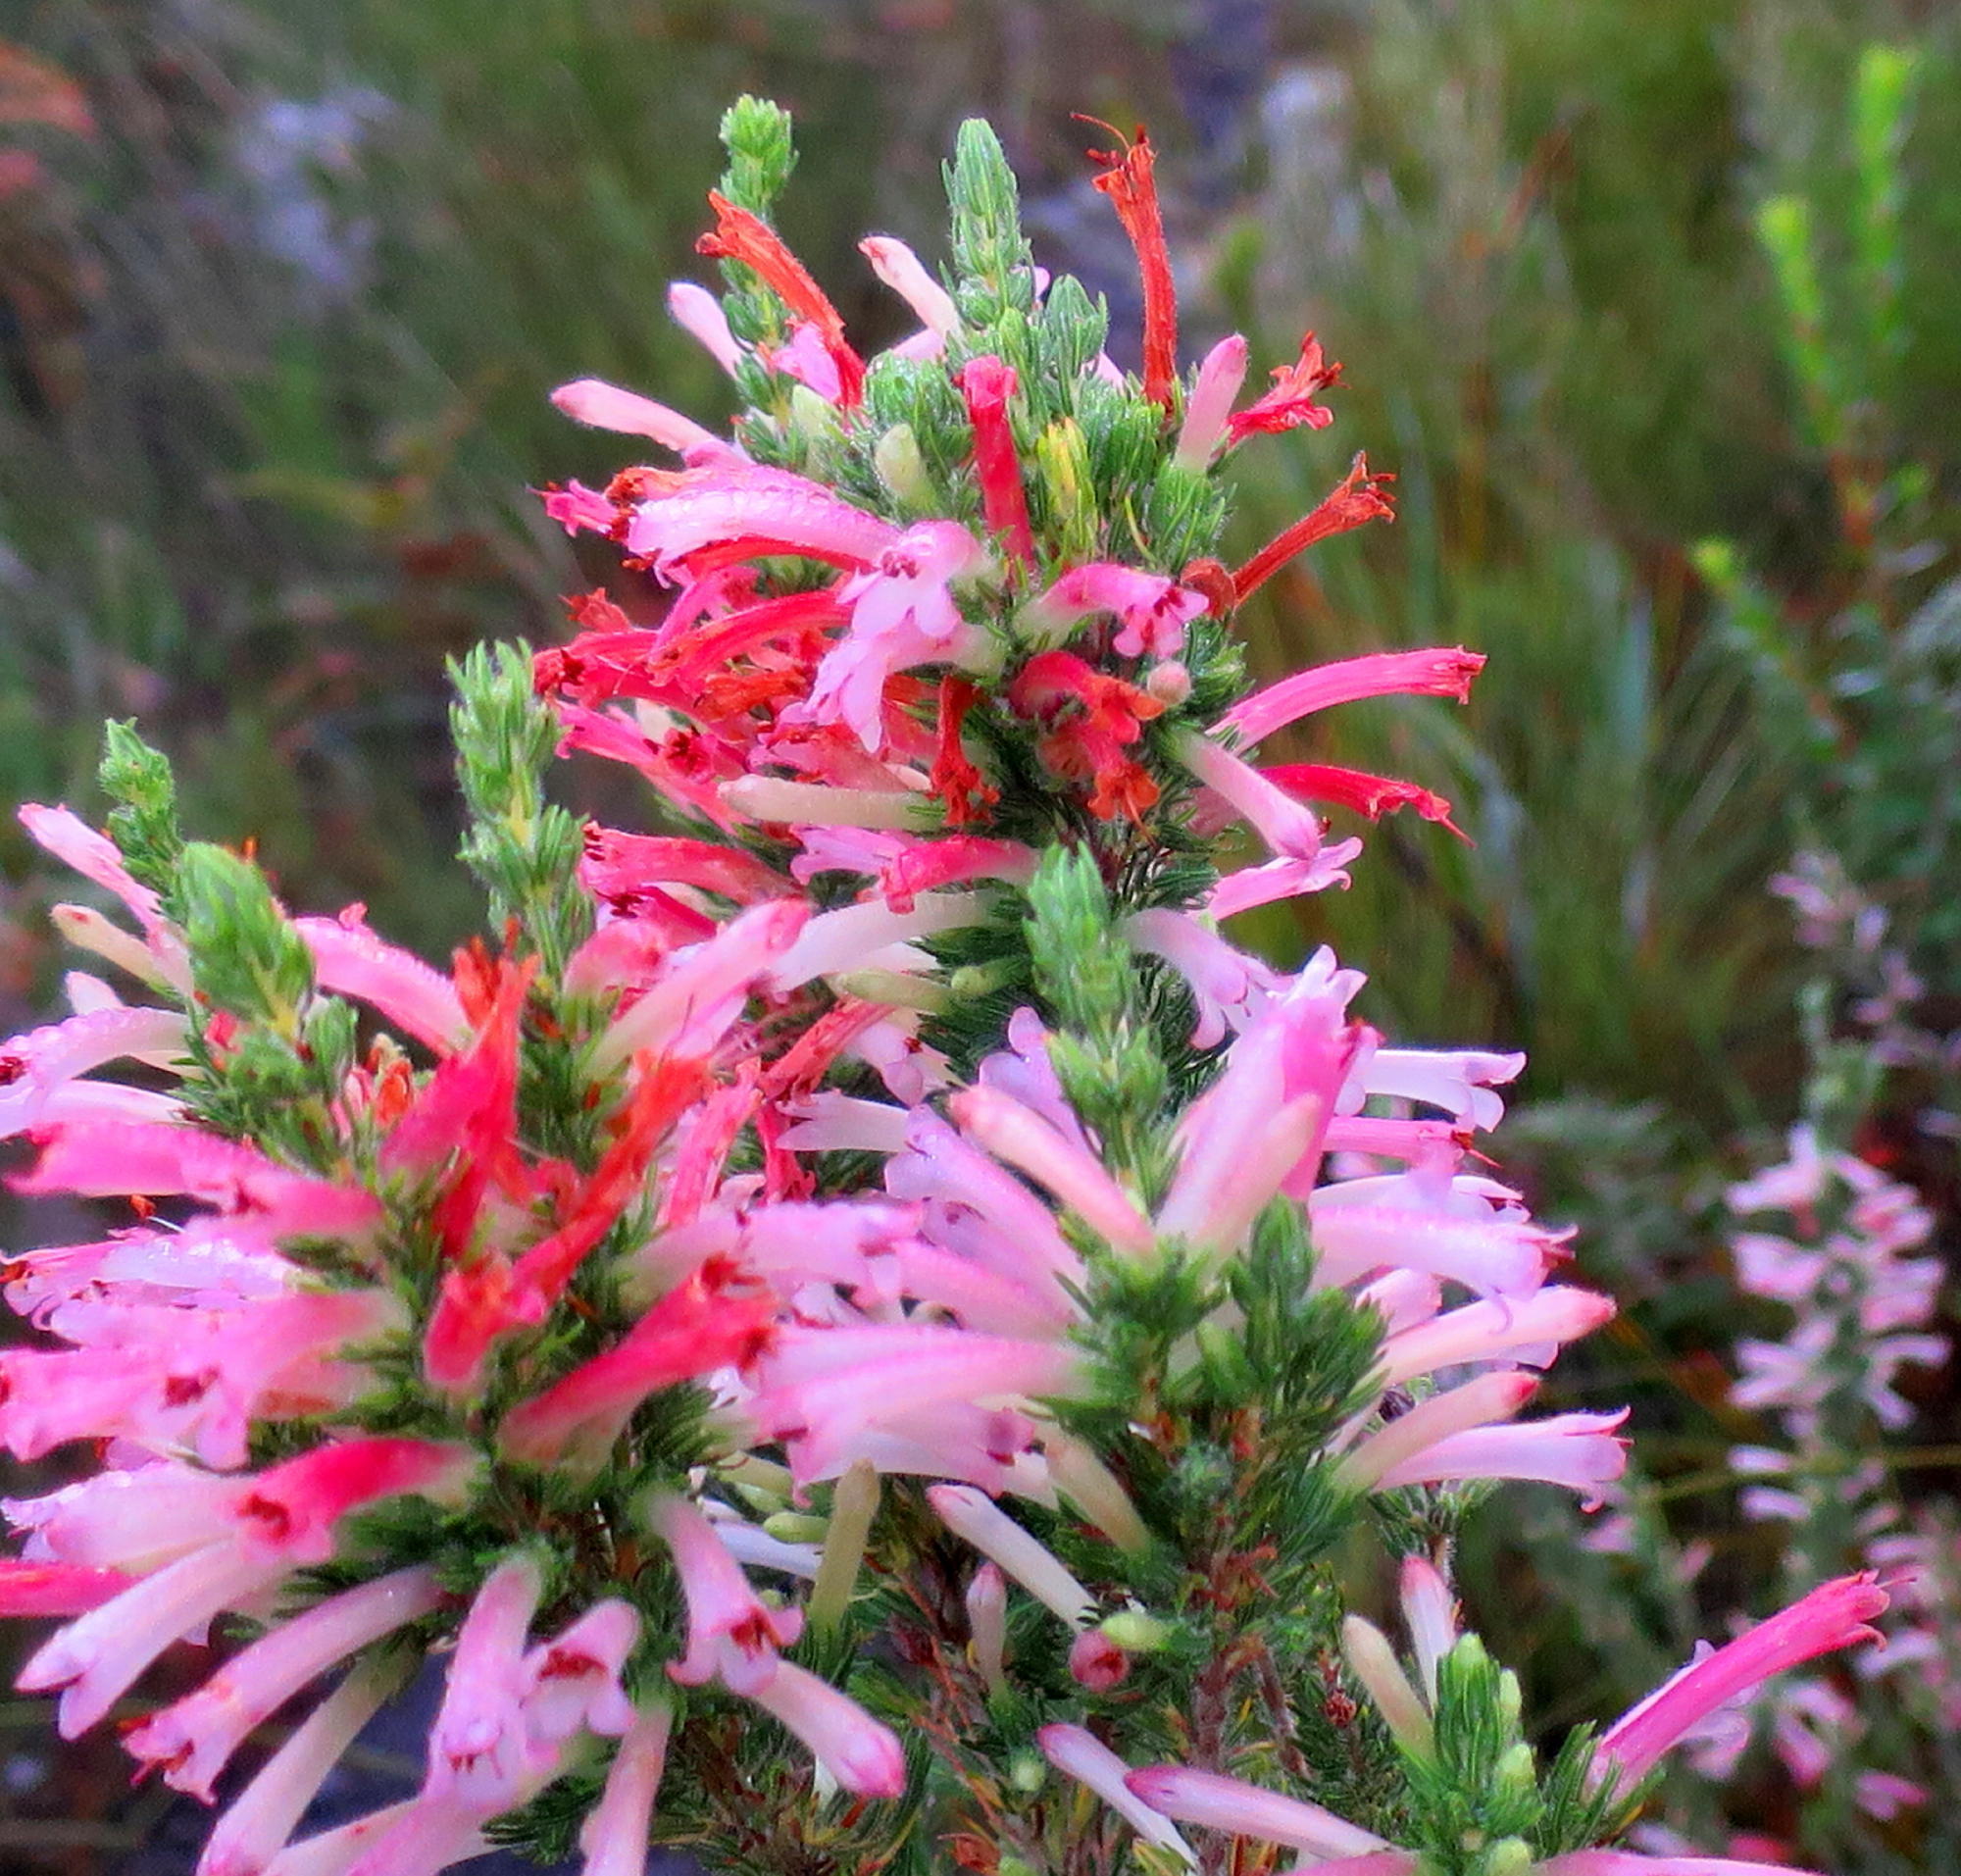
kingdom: Plantae
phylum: Tracheophyta
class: Magnoliopsida
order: Ericales
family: Ericaceae
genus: Erica
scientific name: Erica curviflora
